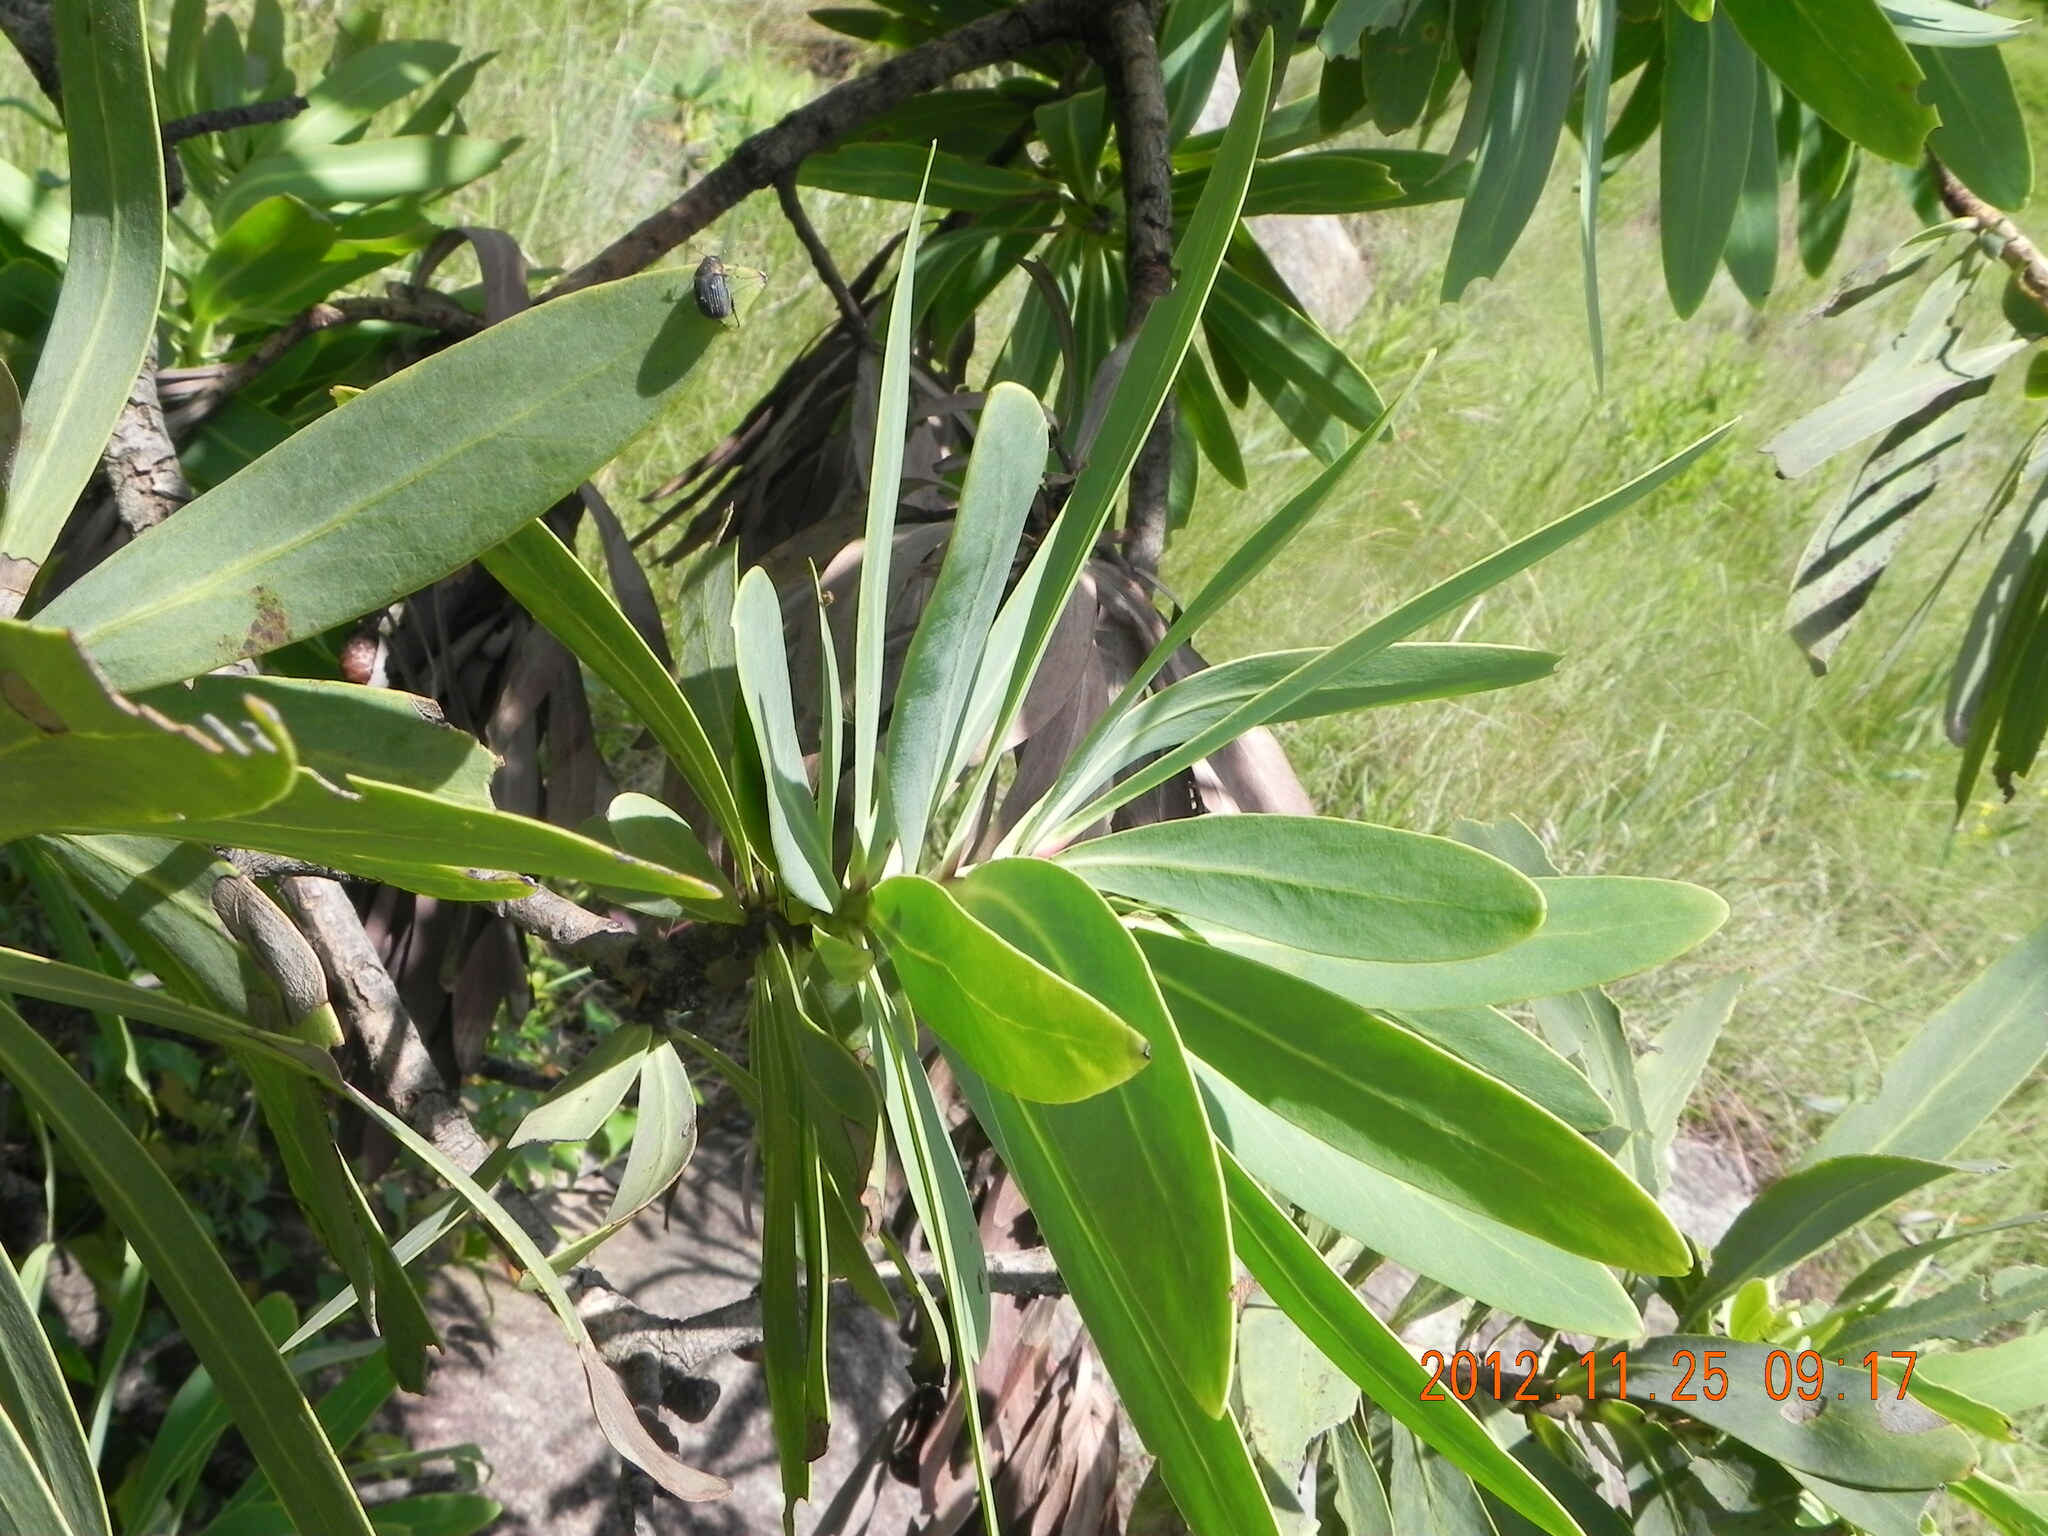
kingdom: Plantae
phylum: Tracheophyta
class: Magnoliopsida
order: Proteales
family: Proteaceae
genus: Protea
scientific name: Protea caffra
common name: Common sugarbush
